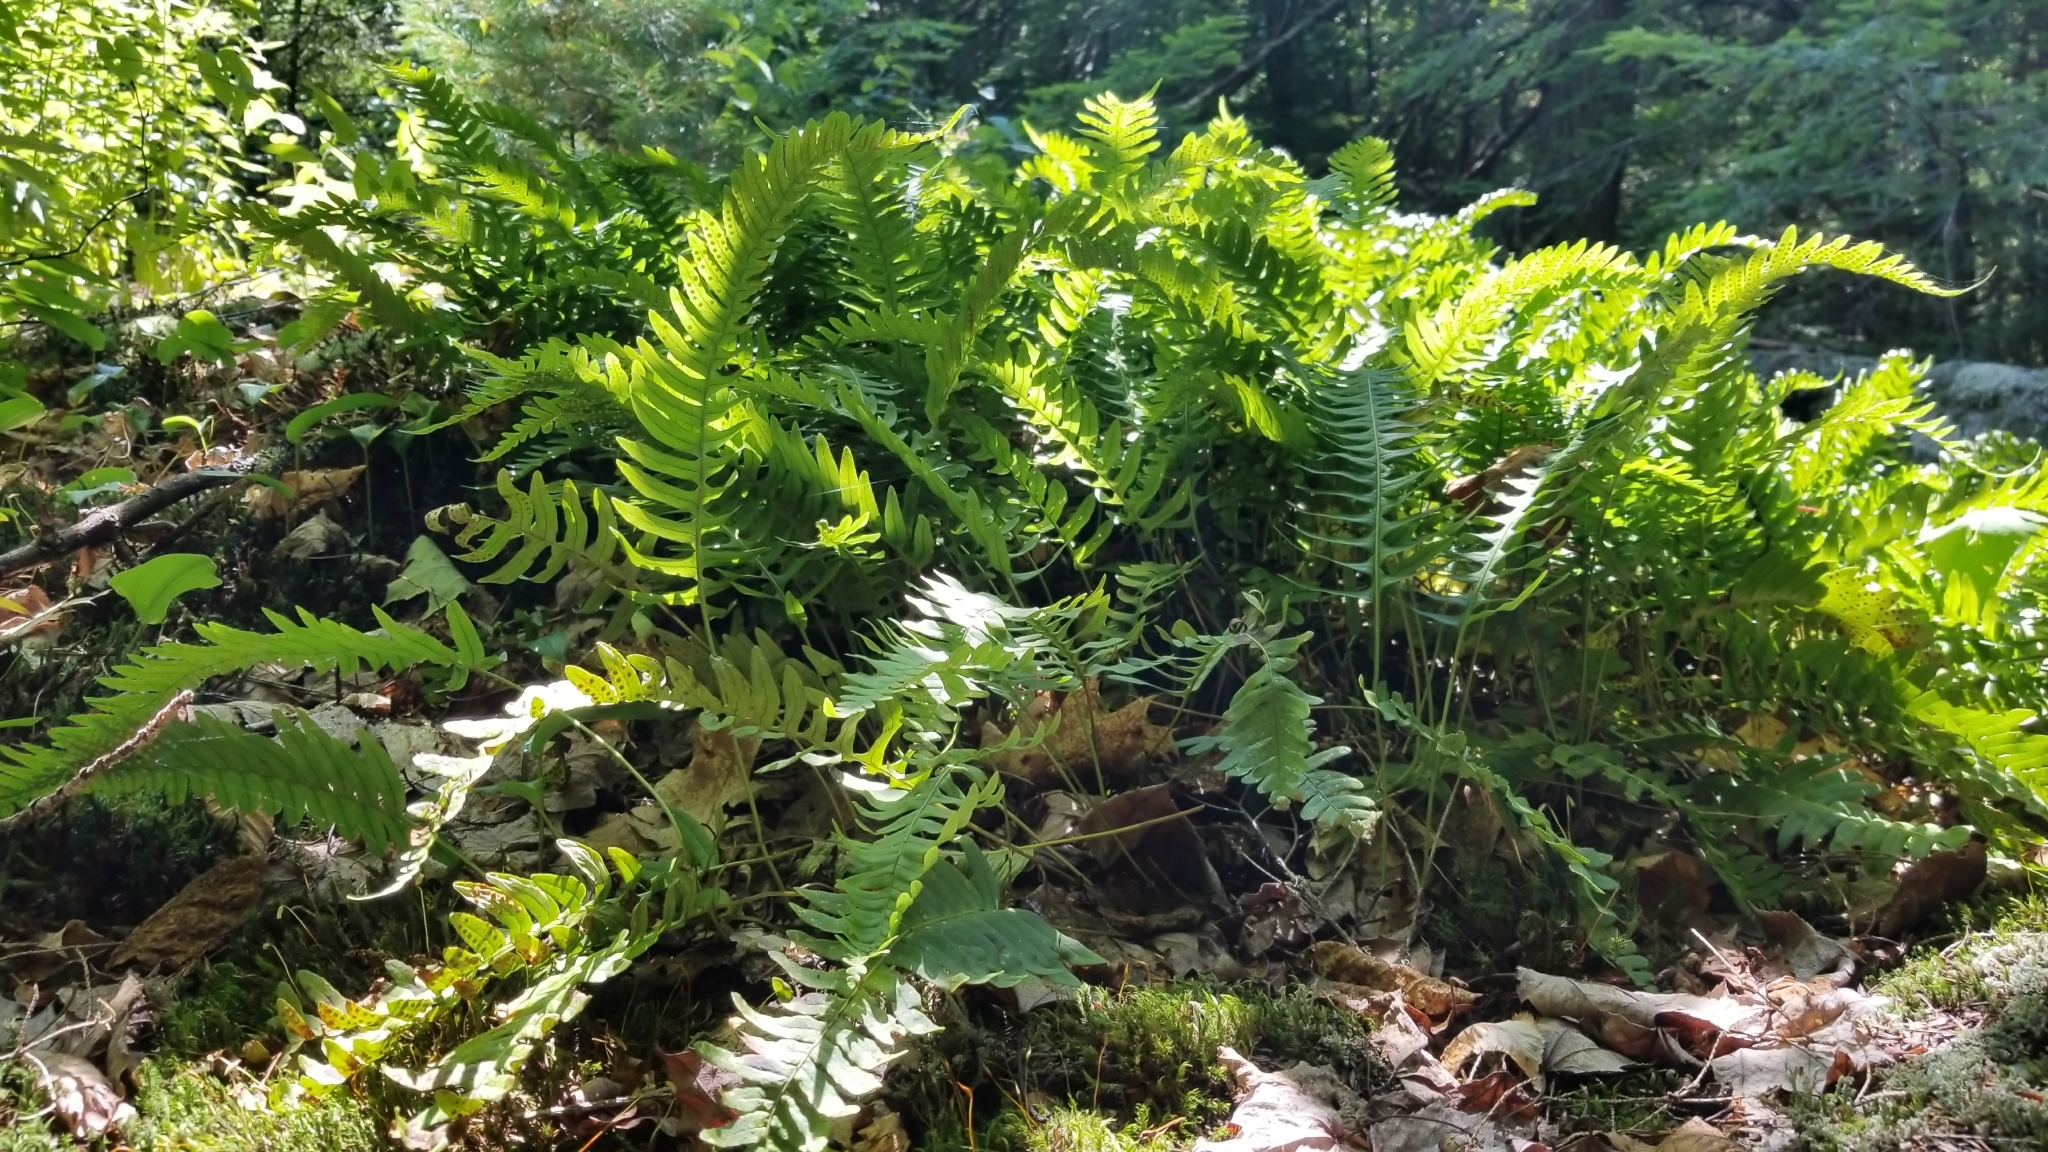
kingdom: Plantae
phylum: Tracheophyta
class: Polypodiopsida
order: Polypodiales
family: Polypodiaceae
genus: Polypodium
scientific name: Polypodium virginianum
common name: American wall fern
